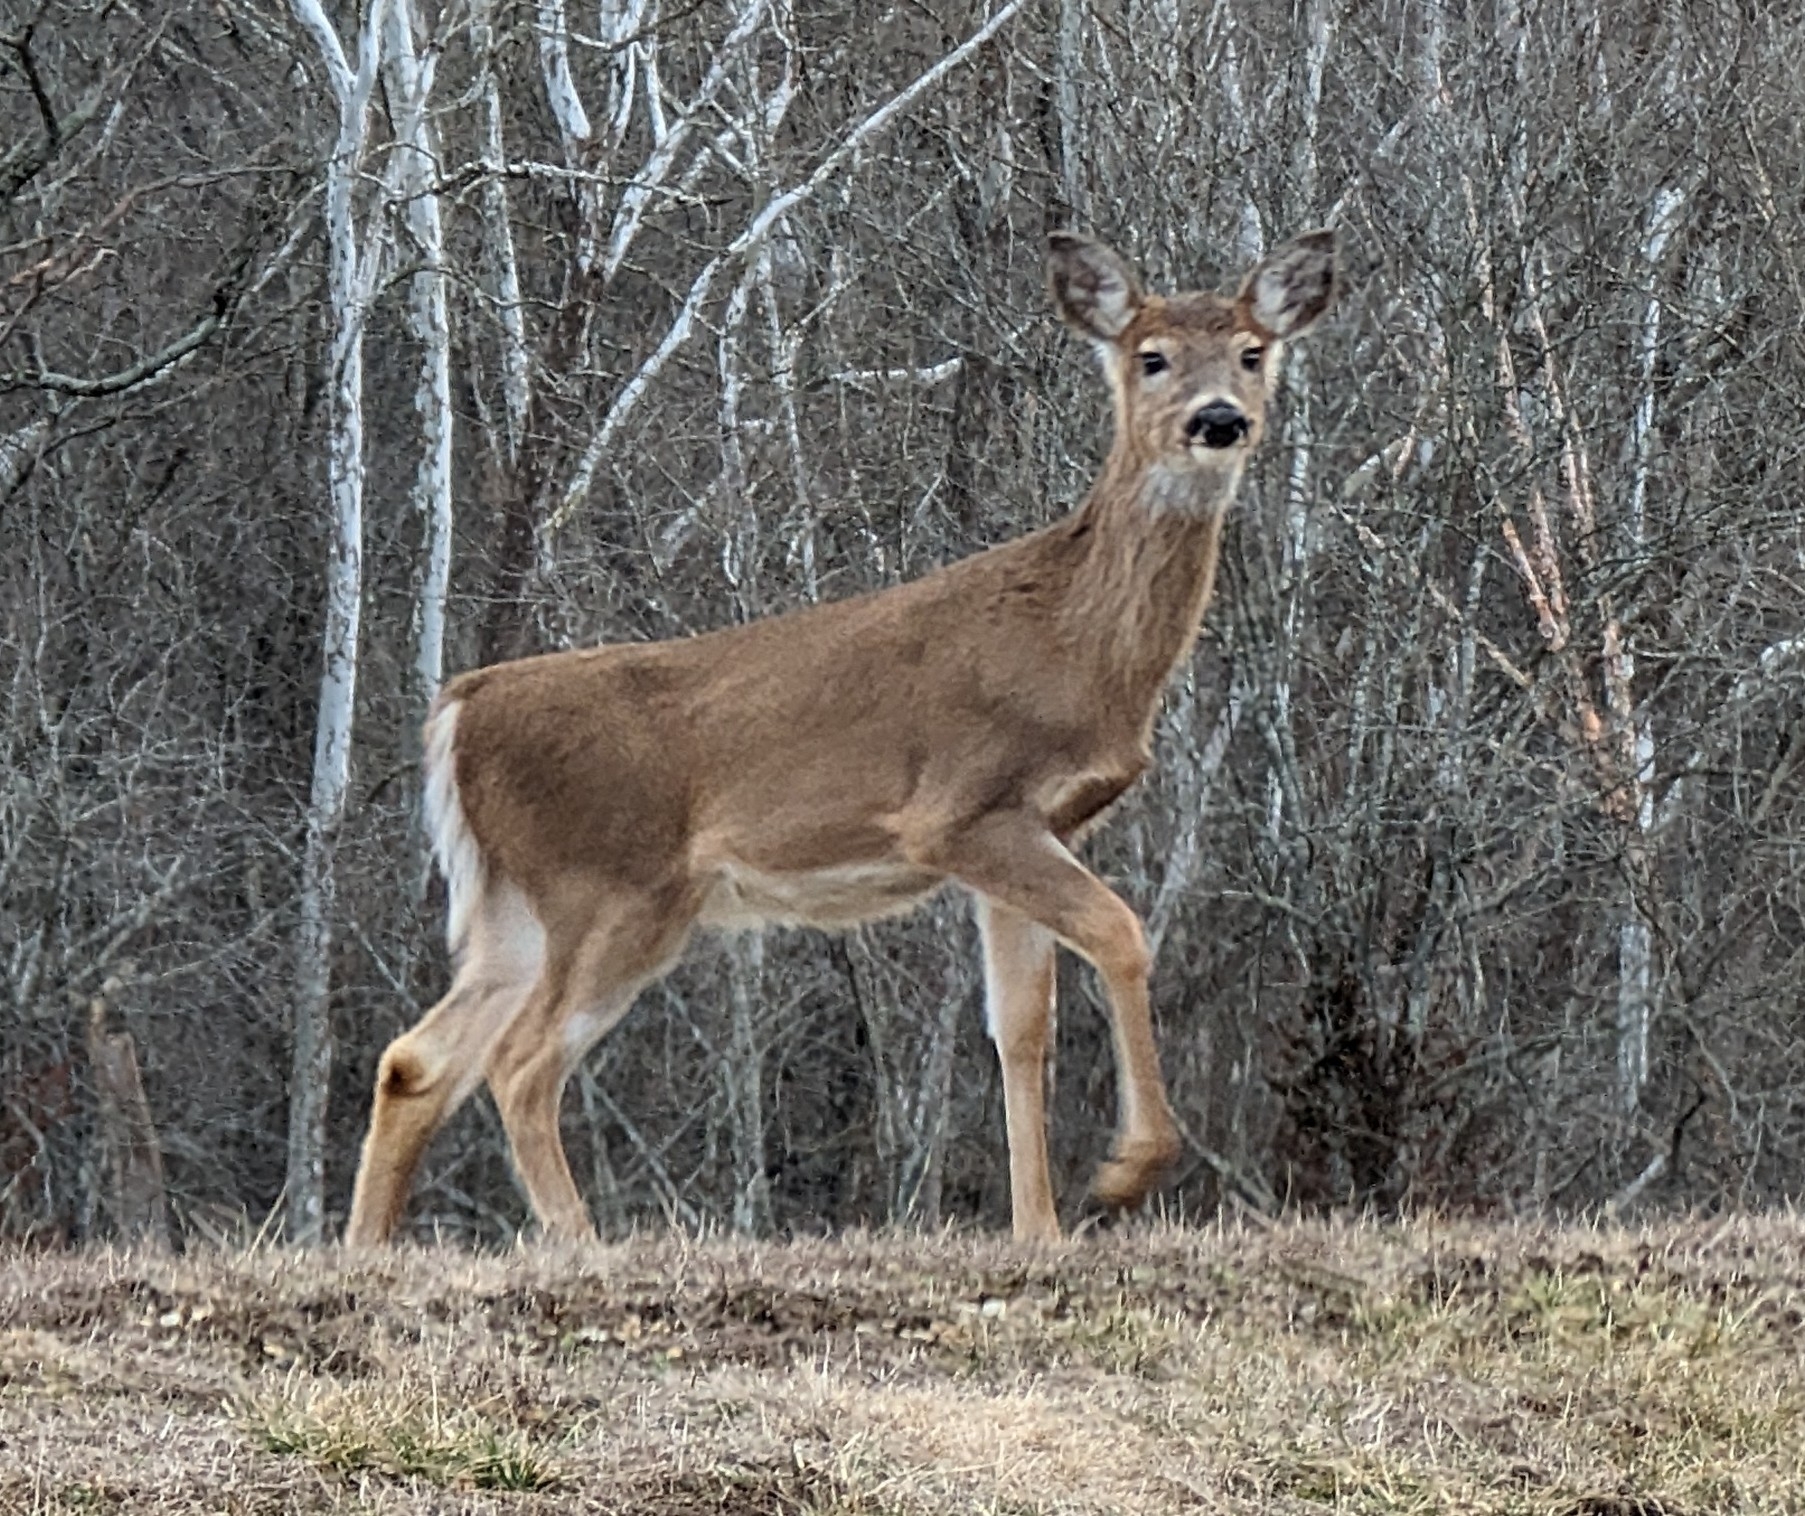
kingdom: Animalia
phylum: Chordata
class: Mammalia
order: Artiodactyla
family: Cervidae
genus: Odocoileus
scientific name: Odocoileus virginianus
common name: White-tailed deer
